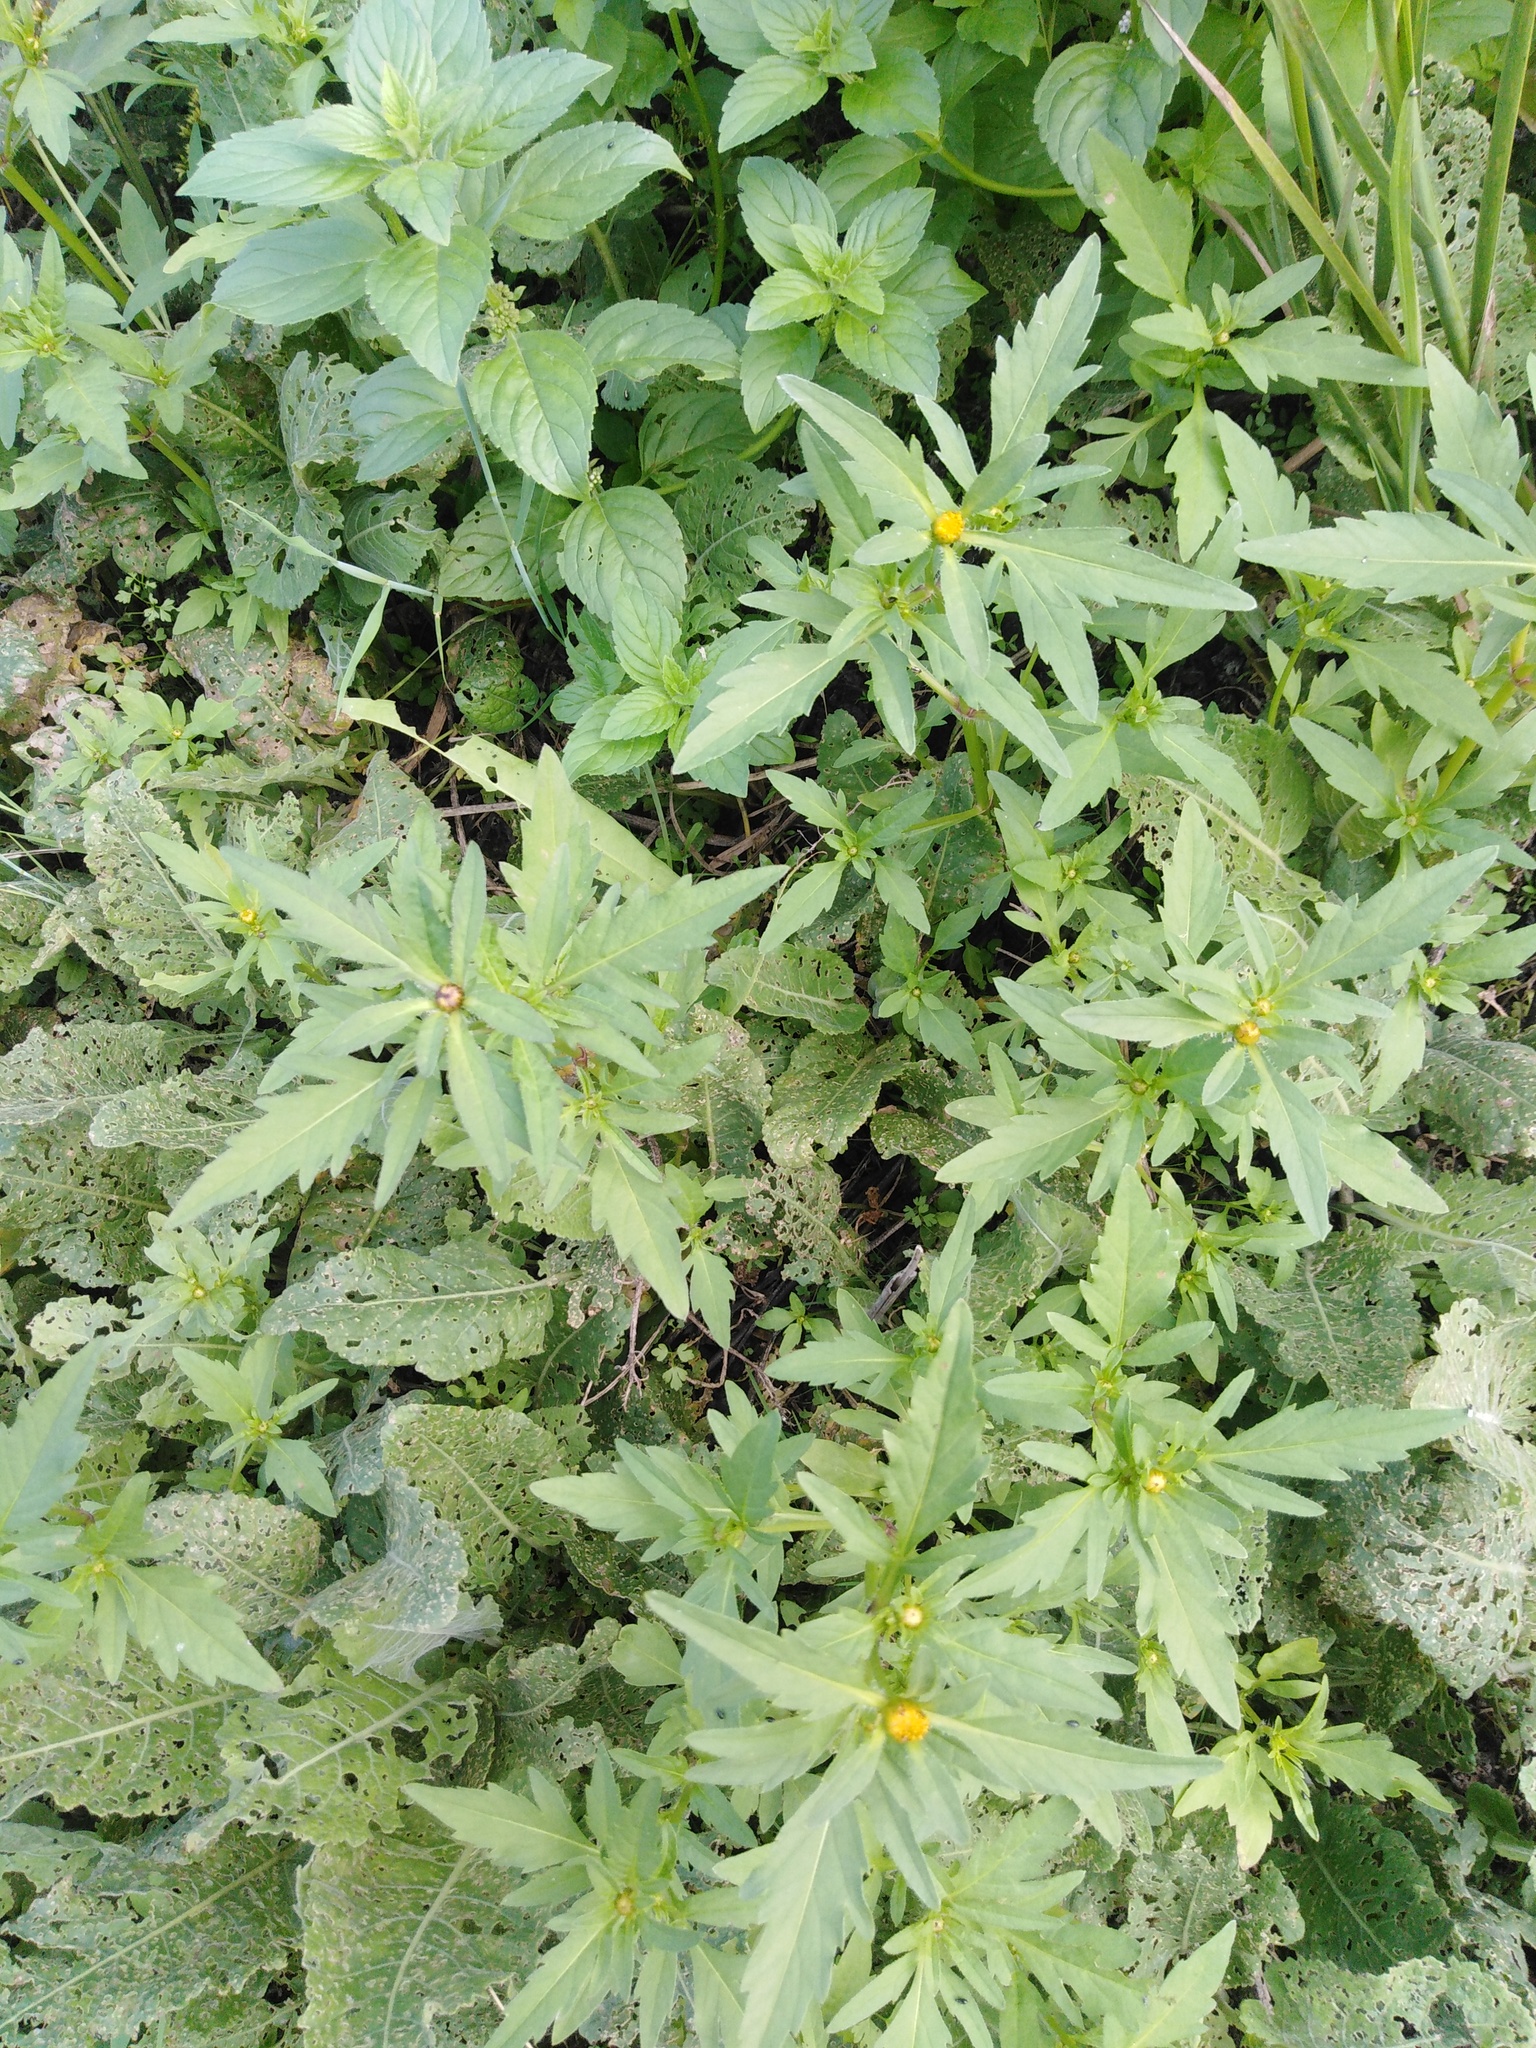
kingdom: Plantae
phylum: Tracheophyta
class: Magnoliopsida
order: Asterales
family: Asteraceae
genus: Bidens
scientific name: Bidens tripartita
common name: Trifid bur-marigold
